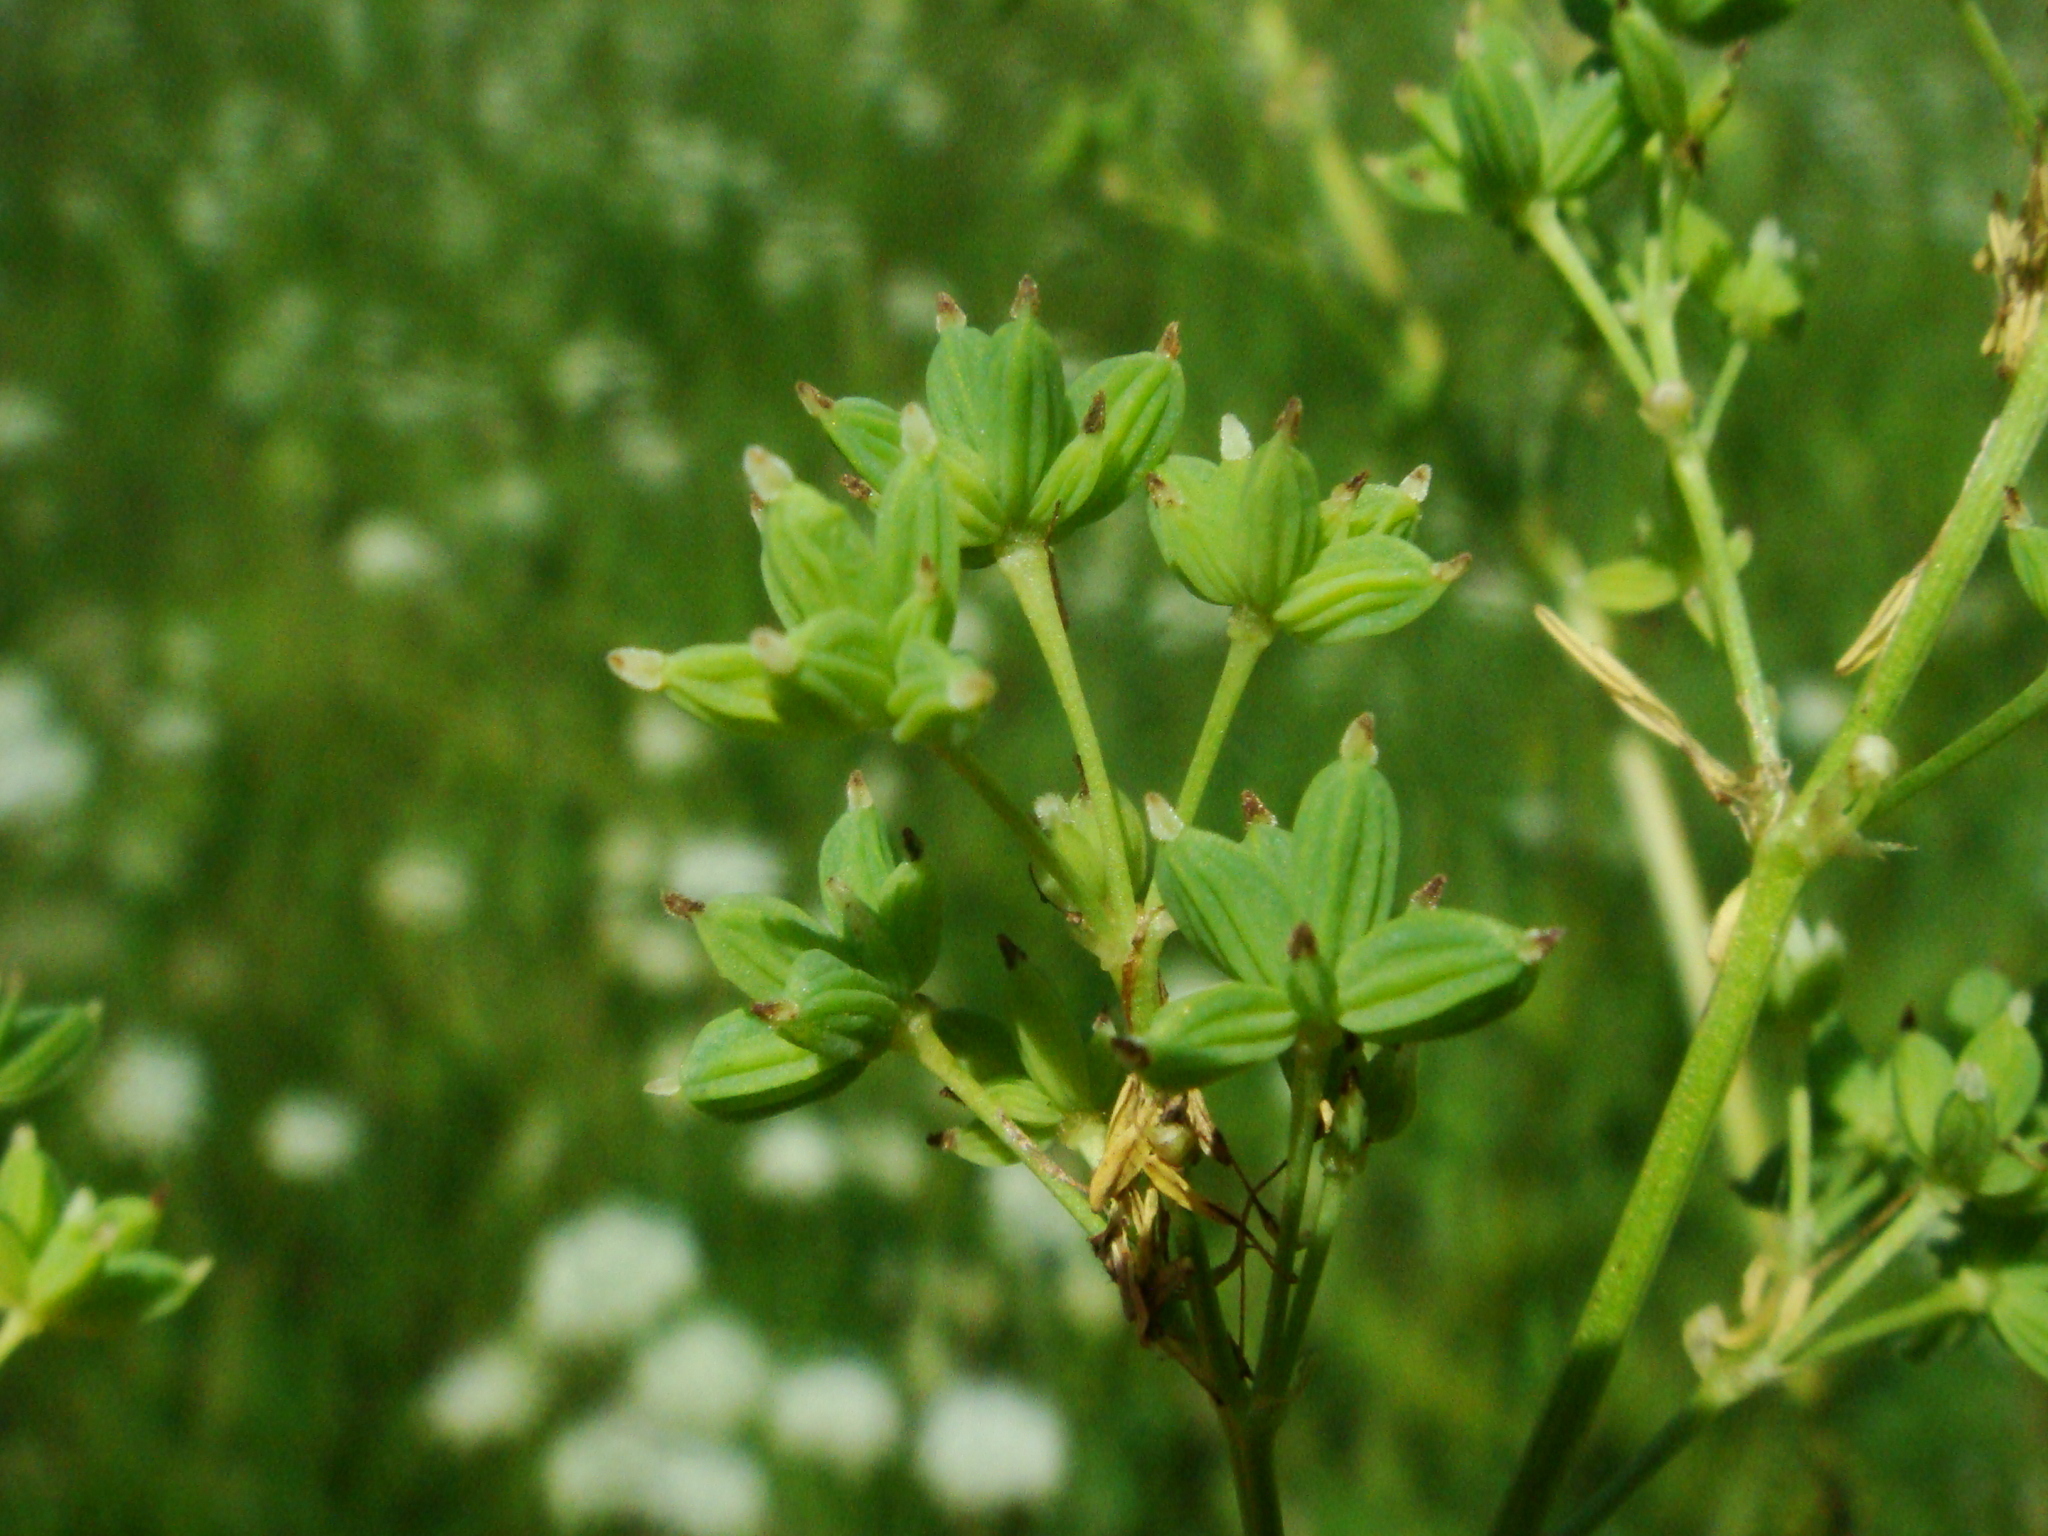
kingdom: Plantae
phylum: Tracheophyta
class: Magnoliopsida
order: Ranunculales
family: Ranunculaceae
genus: Thalictrum
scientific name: Thalictrum lucidum
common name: Shining meadow-rue
